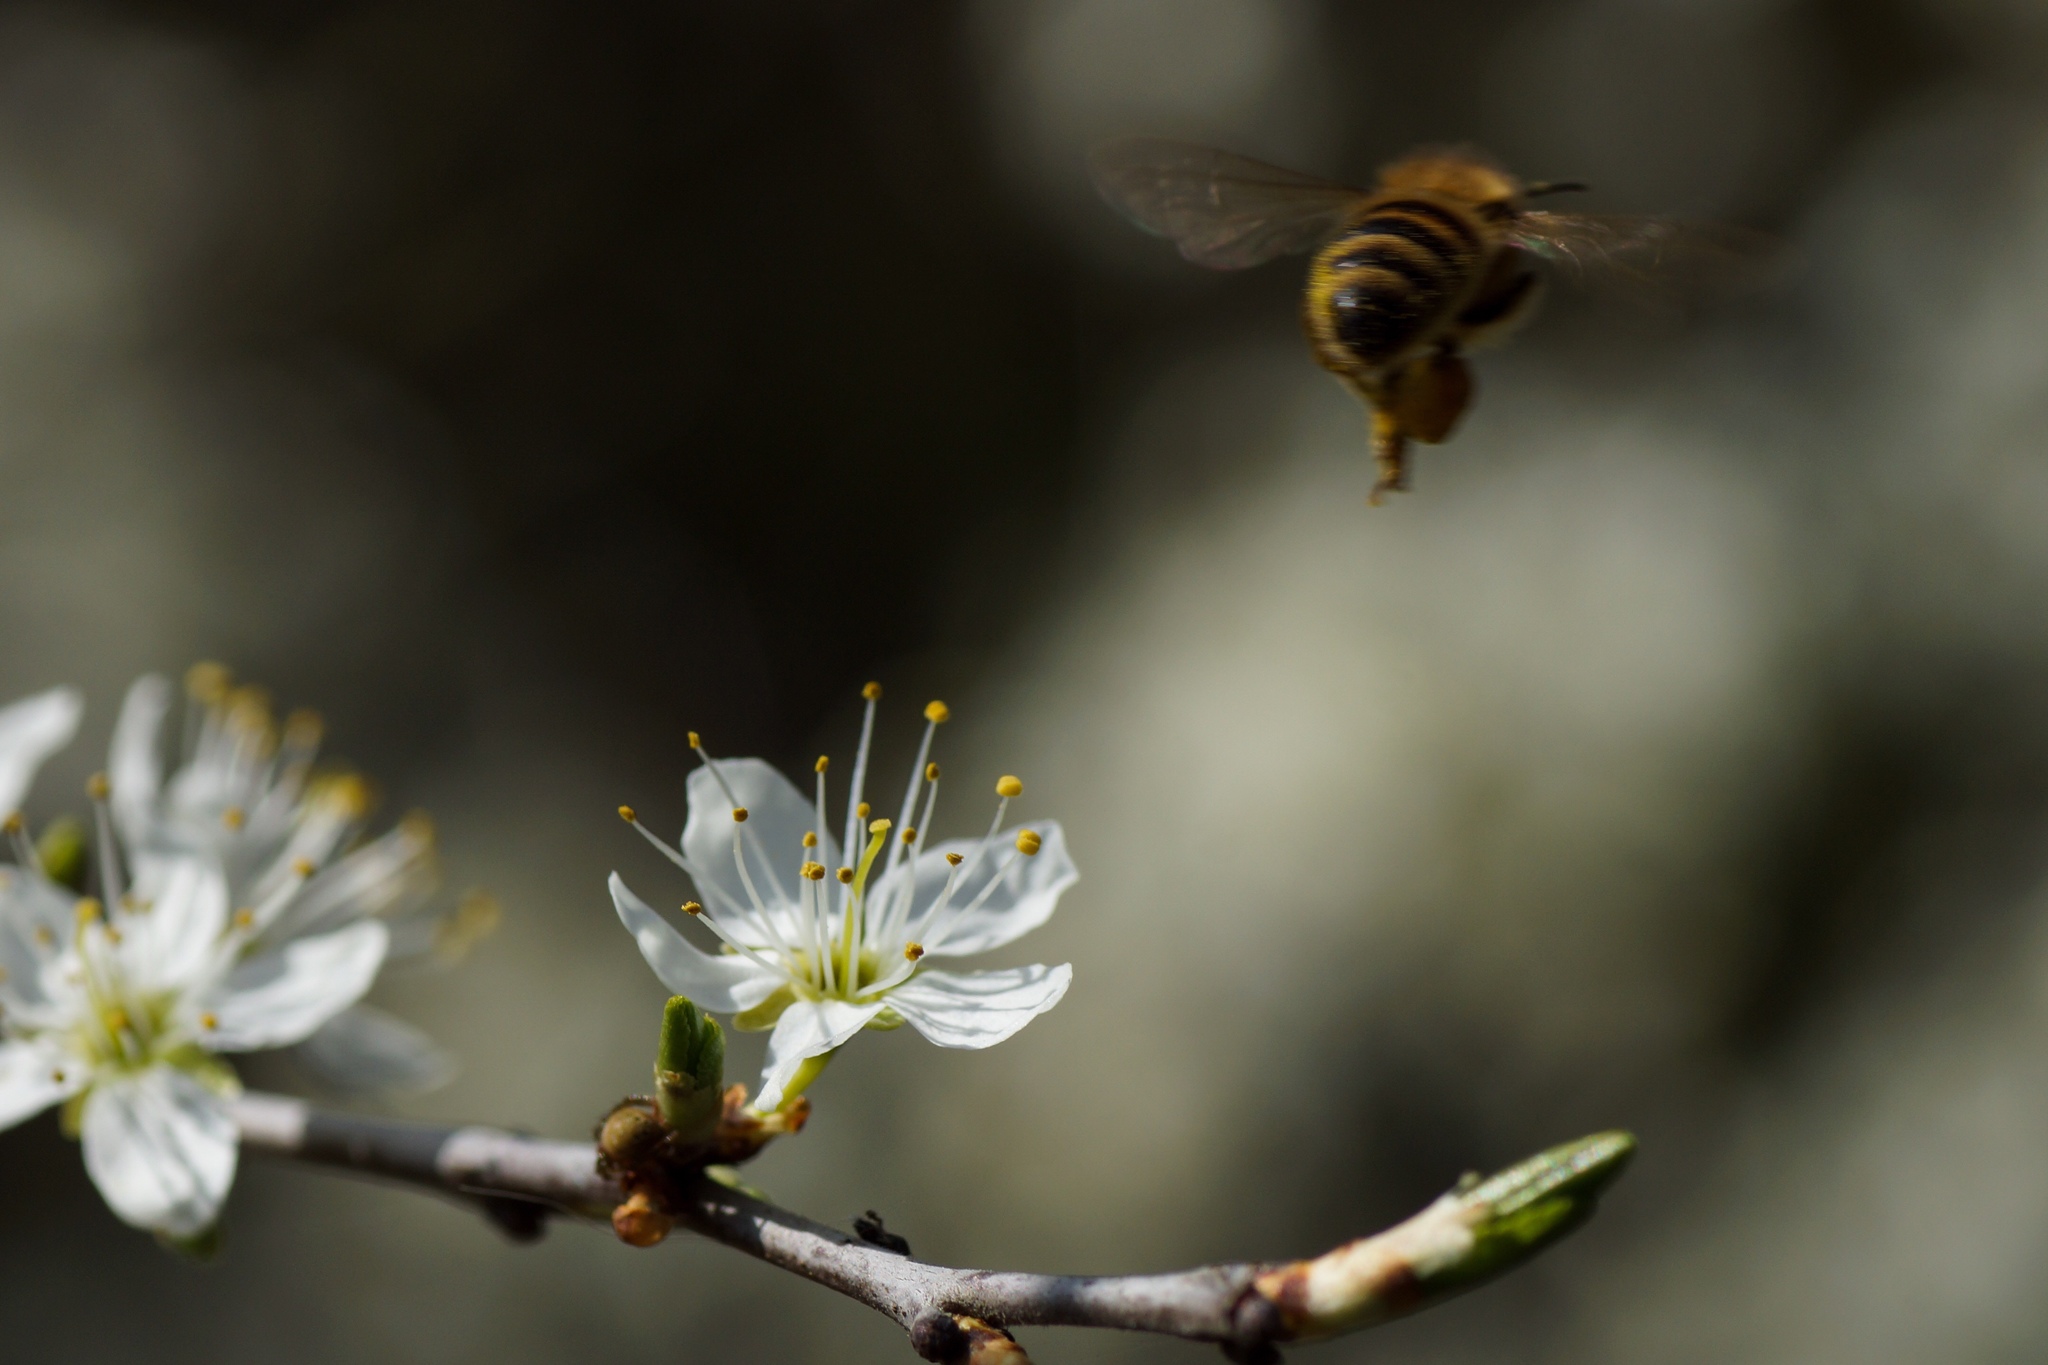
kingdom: Animalia
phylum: Arthropoda
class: Insecta
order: Hymenoptera
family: Apidae
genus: Apis
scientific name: Apis mellifera
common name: Honey bee
